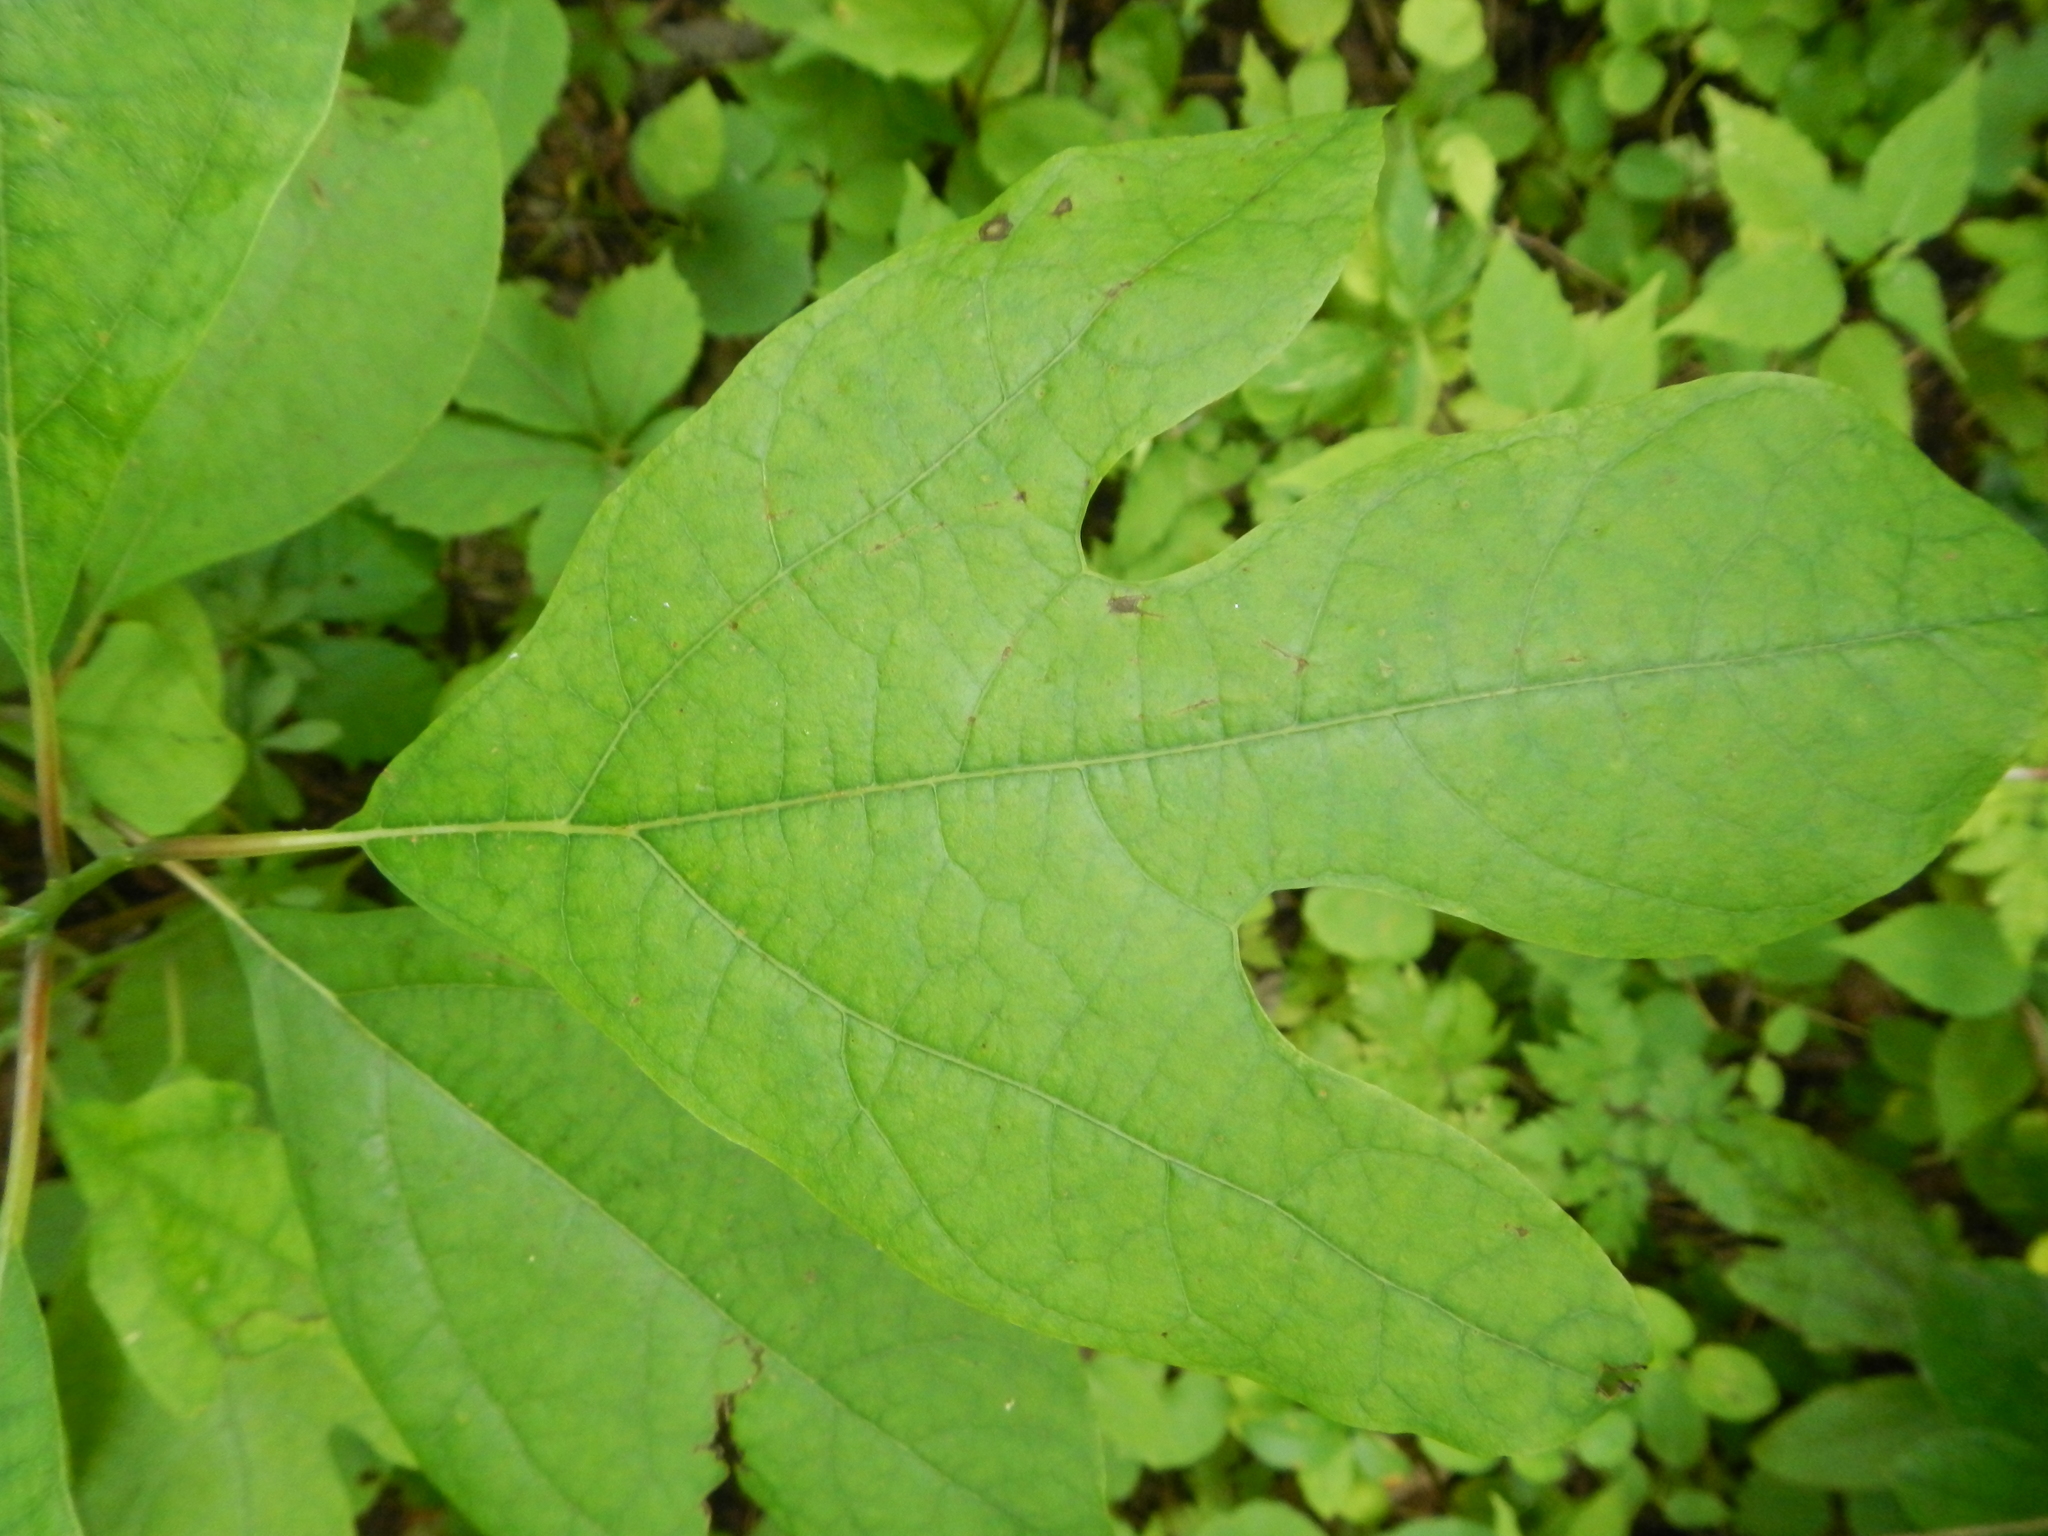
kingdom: Plantae
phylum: Tracheophyta
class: Magnoliopsida
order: Laurales
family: Lauraceae
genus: Sassafras
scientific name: Sassafras albidum
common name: Sassafras
